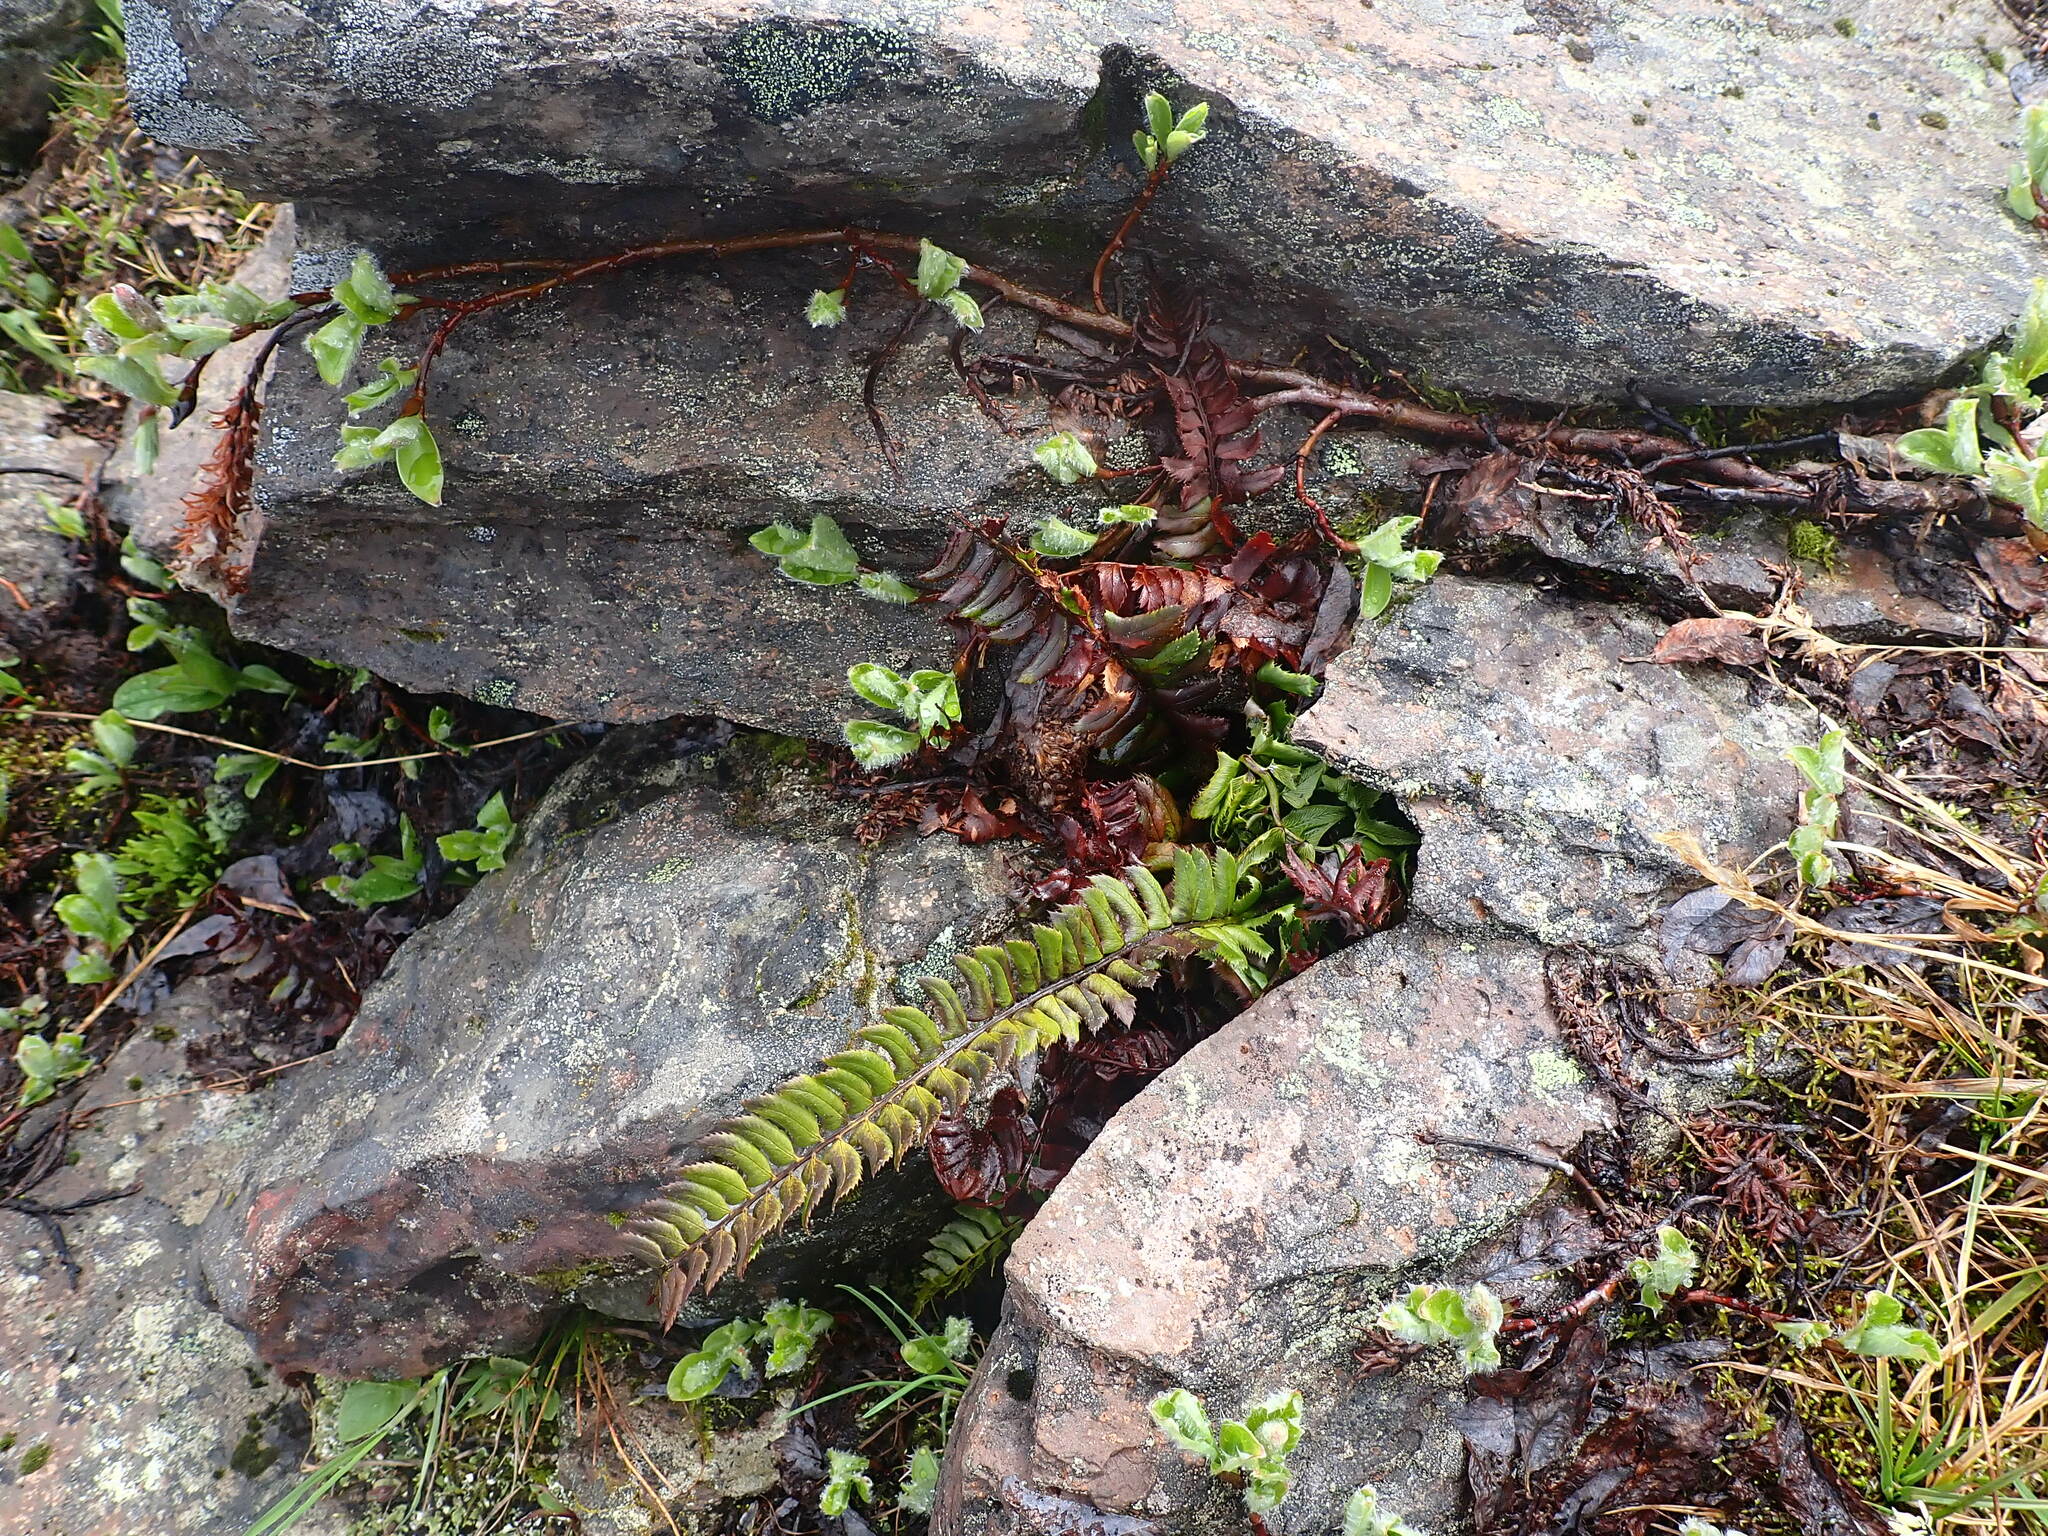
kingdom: Plantae
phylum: Tracheophyta
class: Polypodiopsida
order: Polypodiales
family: Dryopteridaceae
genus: Polystichum
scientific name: Polystichum lonchitis
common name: Holly fern
